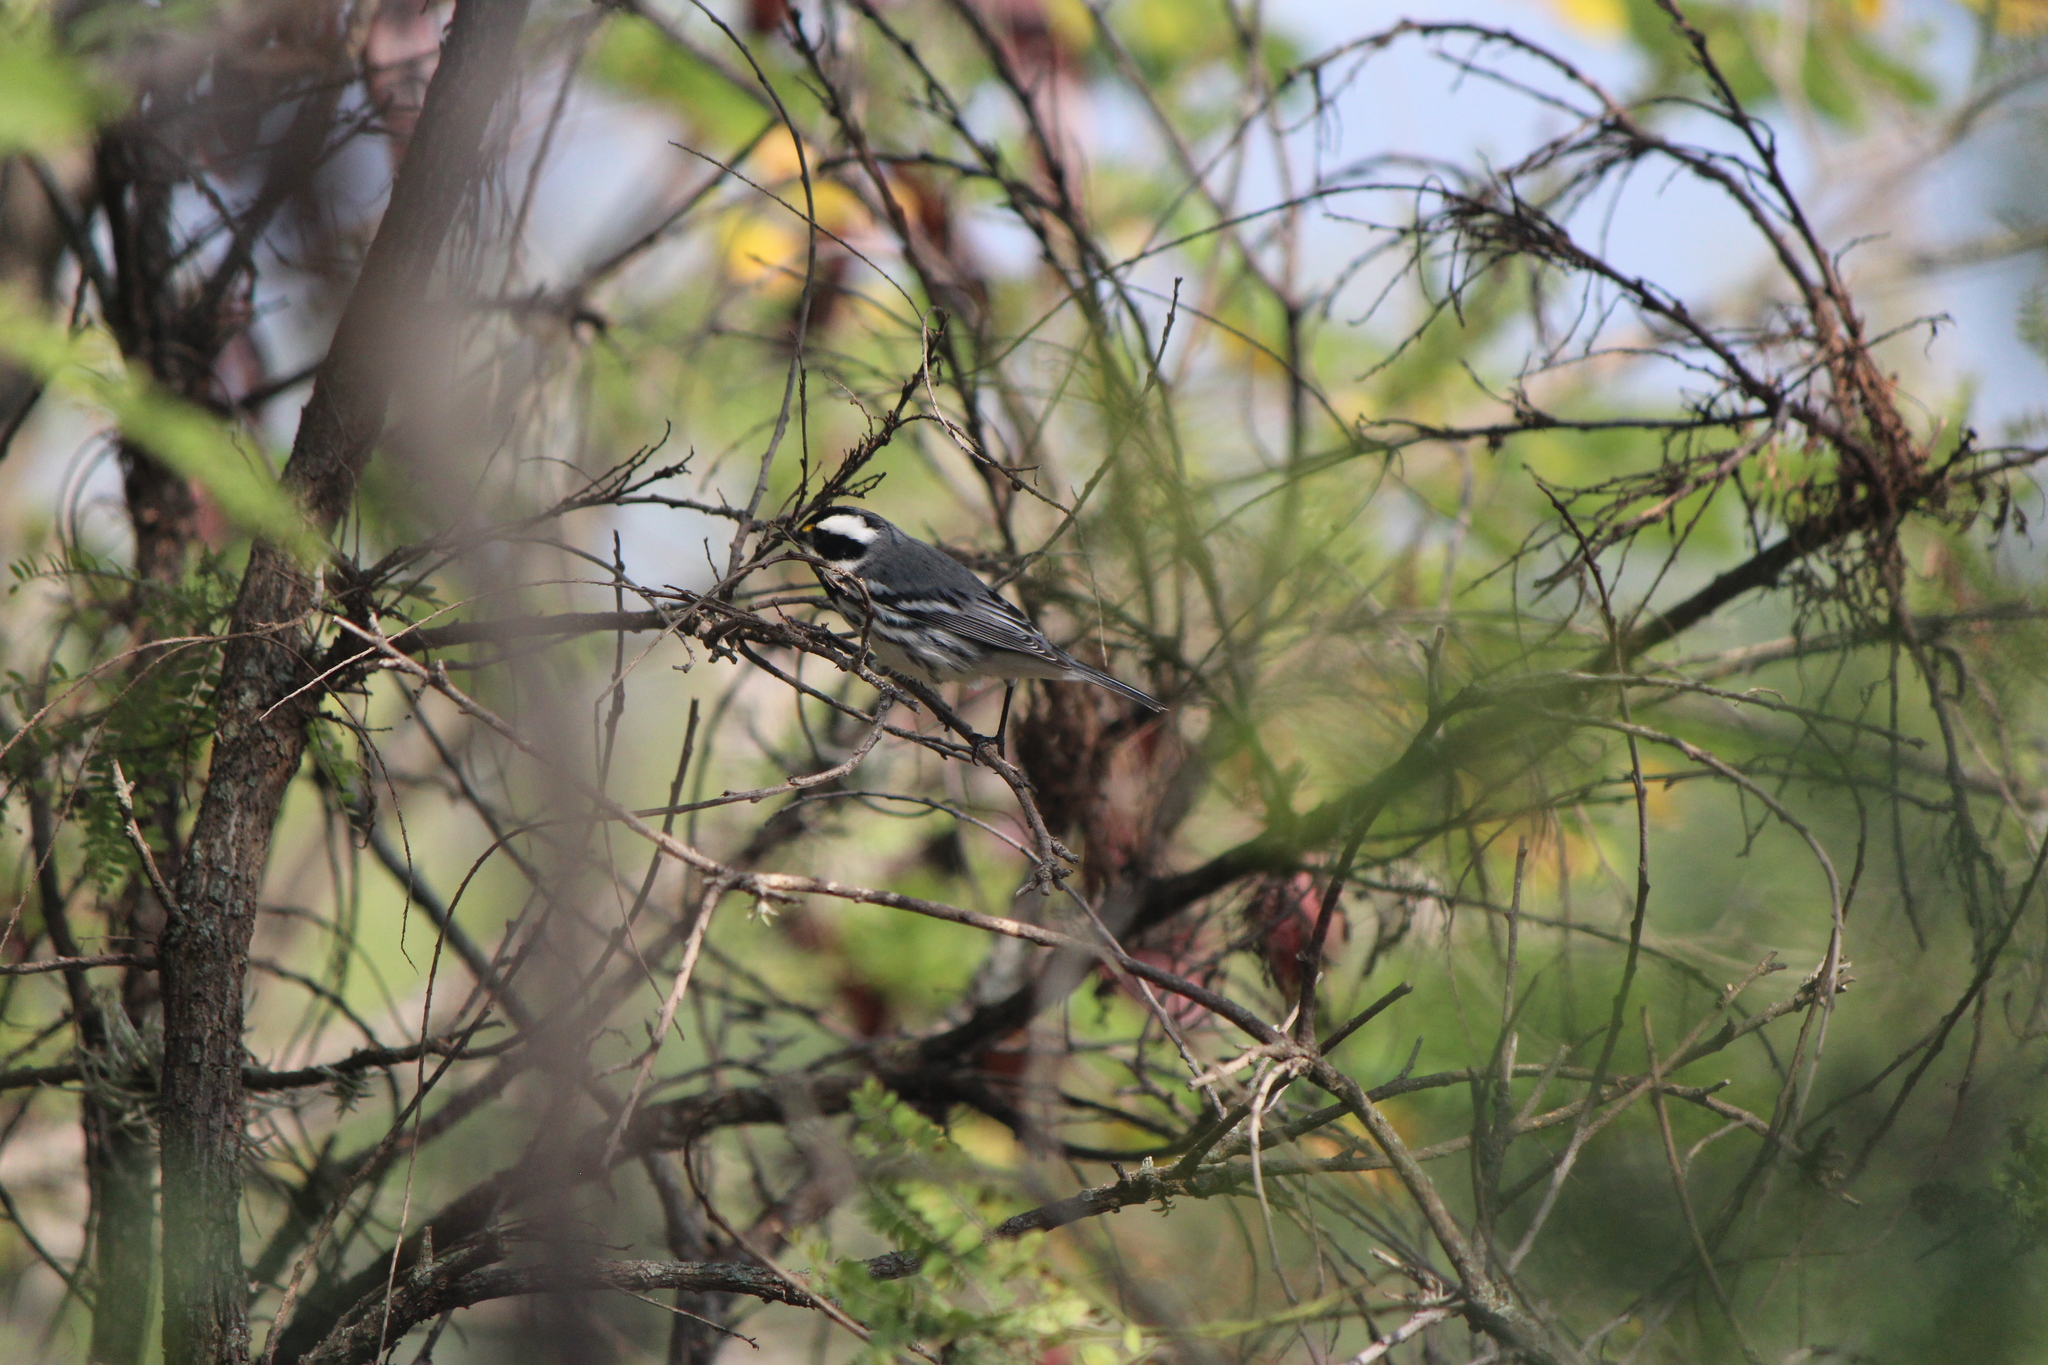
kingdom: Animalia
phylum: Chordata
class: Aves
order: Passeriformes
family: Parulidae
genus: Setophaga
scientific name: Setophaga nigrescens
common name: Black-throated gray warbler
